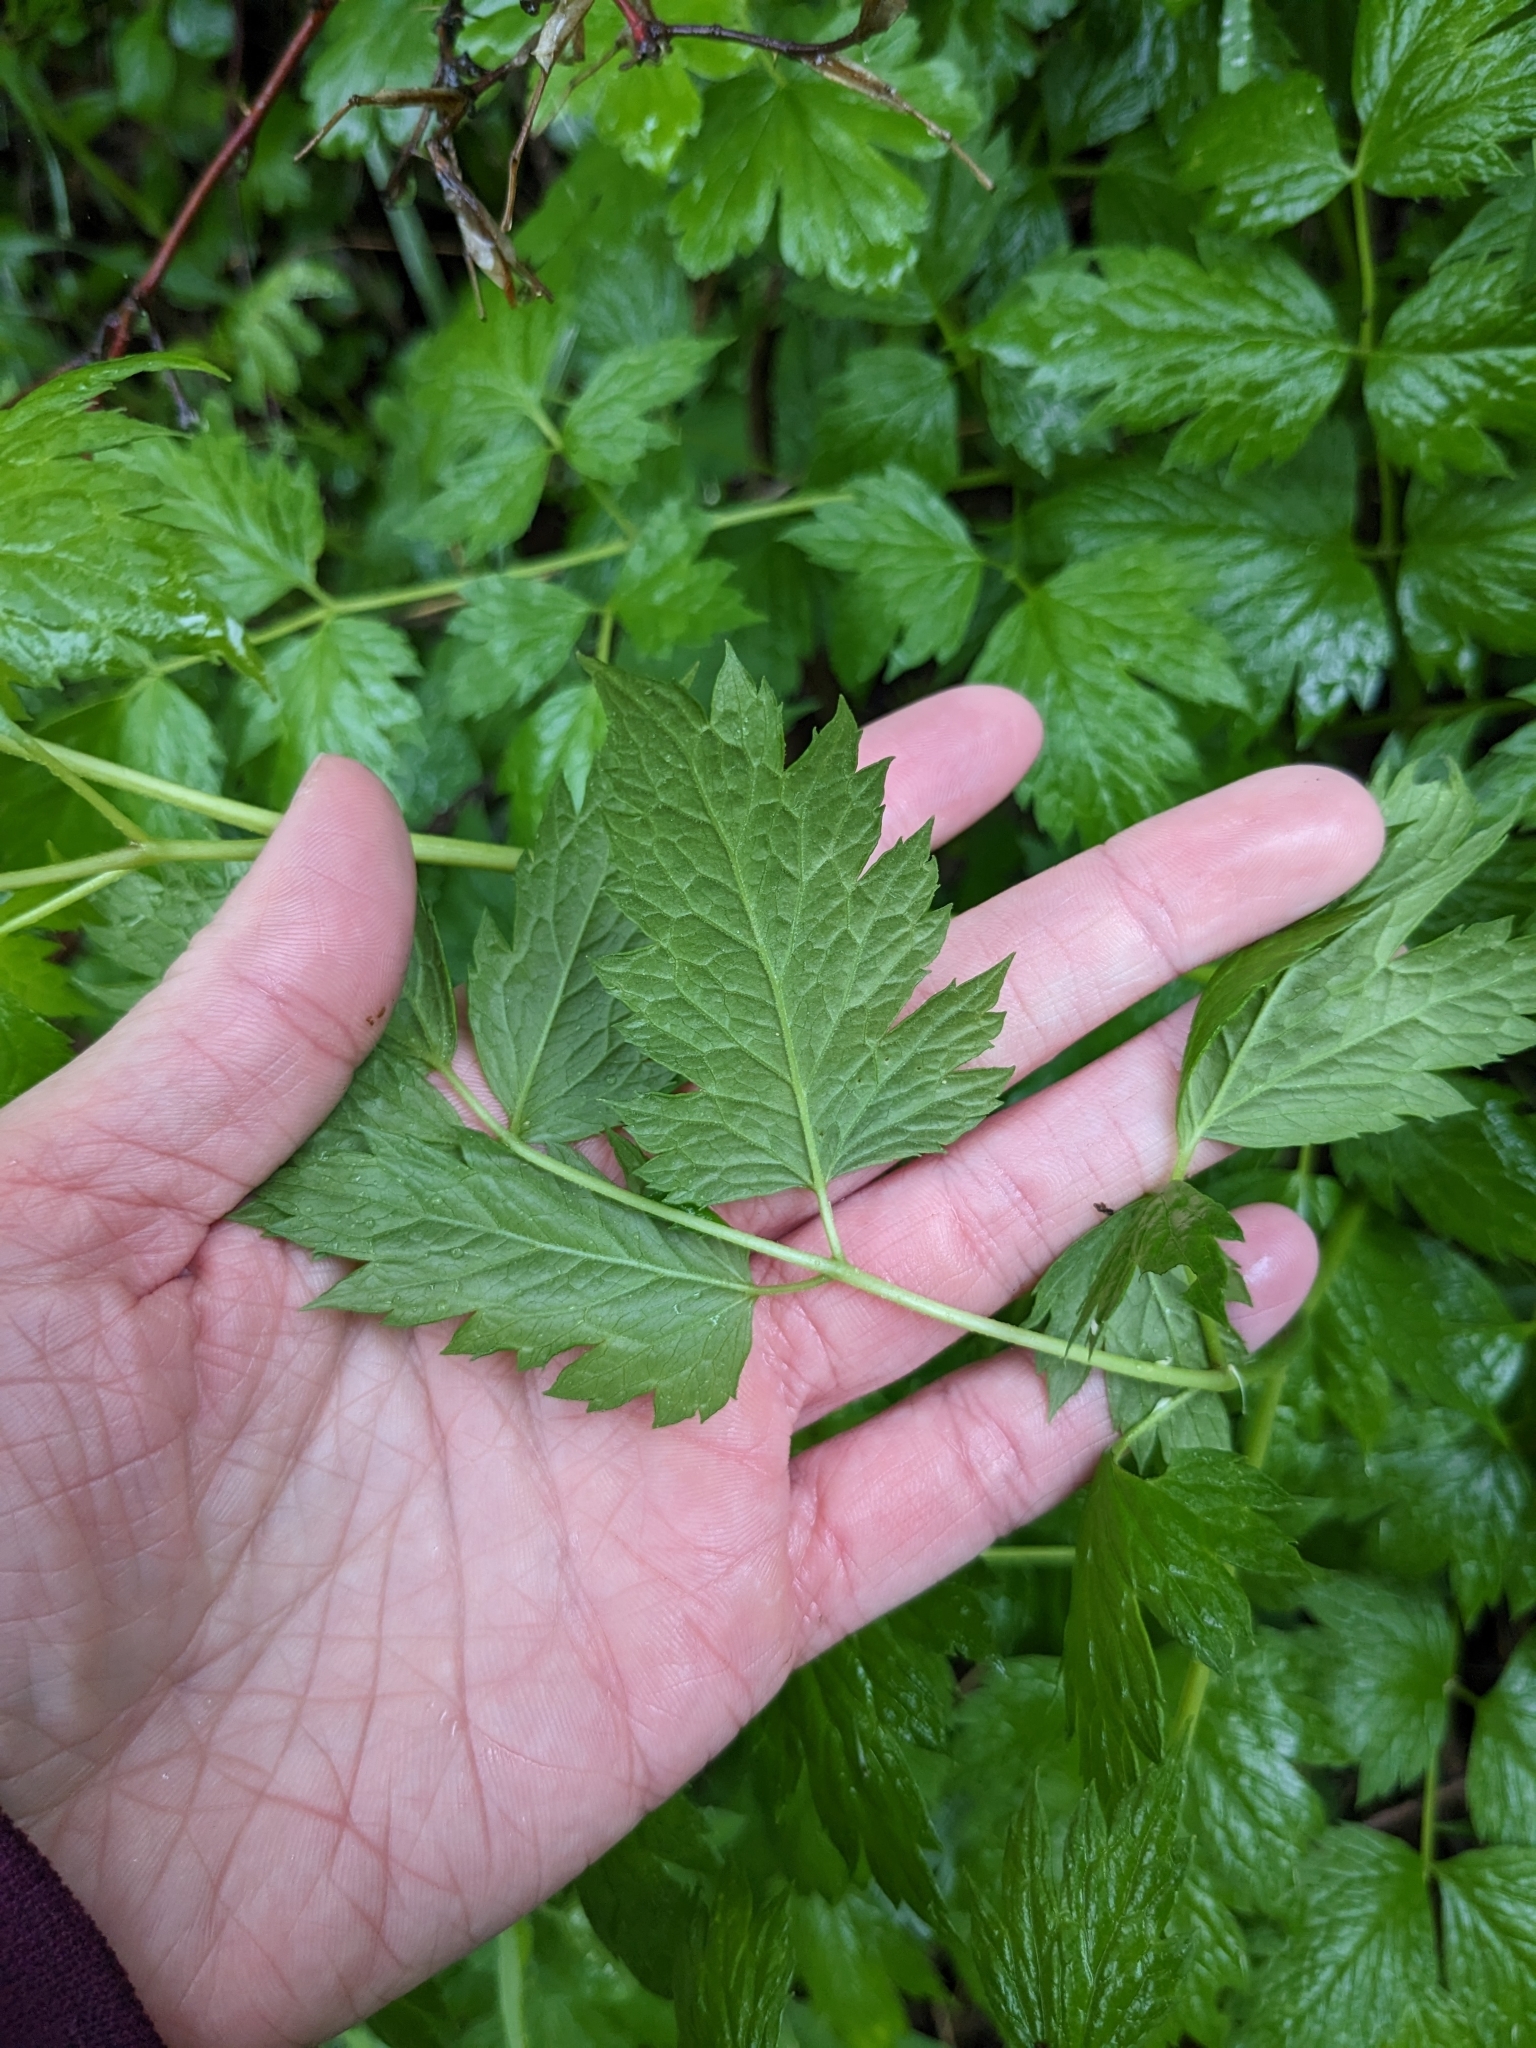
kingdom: Plantae
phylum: Tracheophyta
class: Magnoliopsida
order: Ranunculales
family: Ranunculaceae
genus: Actaea
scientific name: Actaea rubra
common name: Red baneberry
